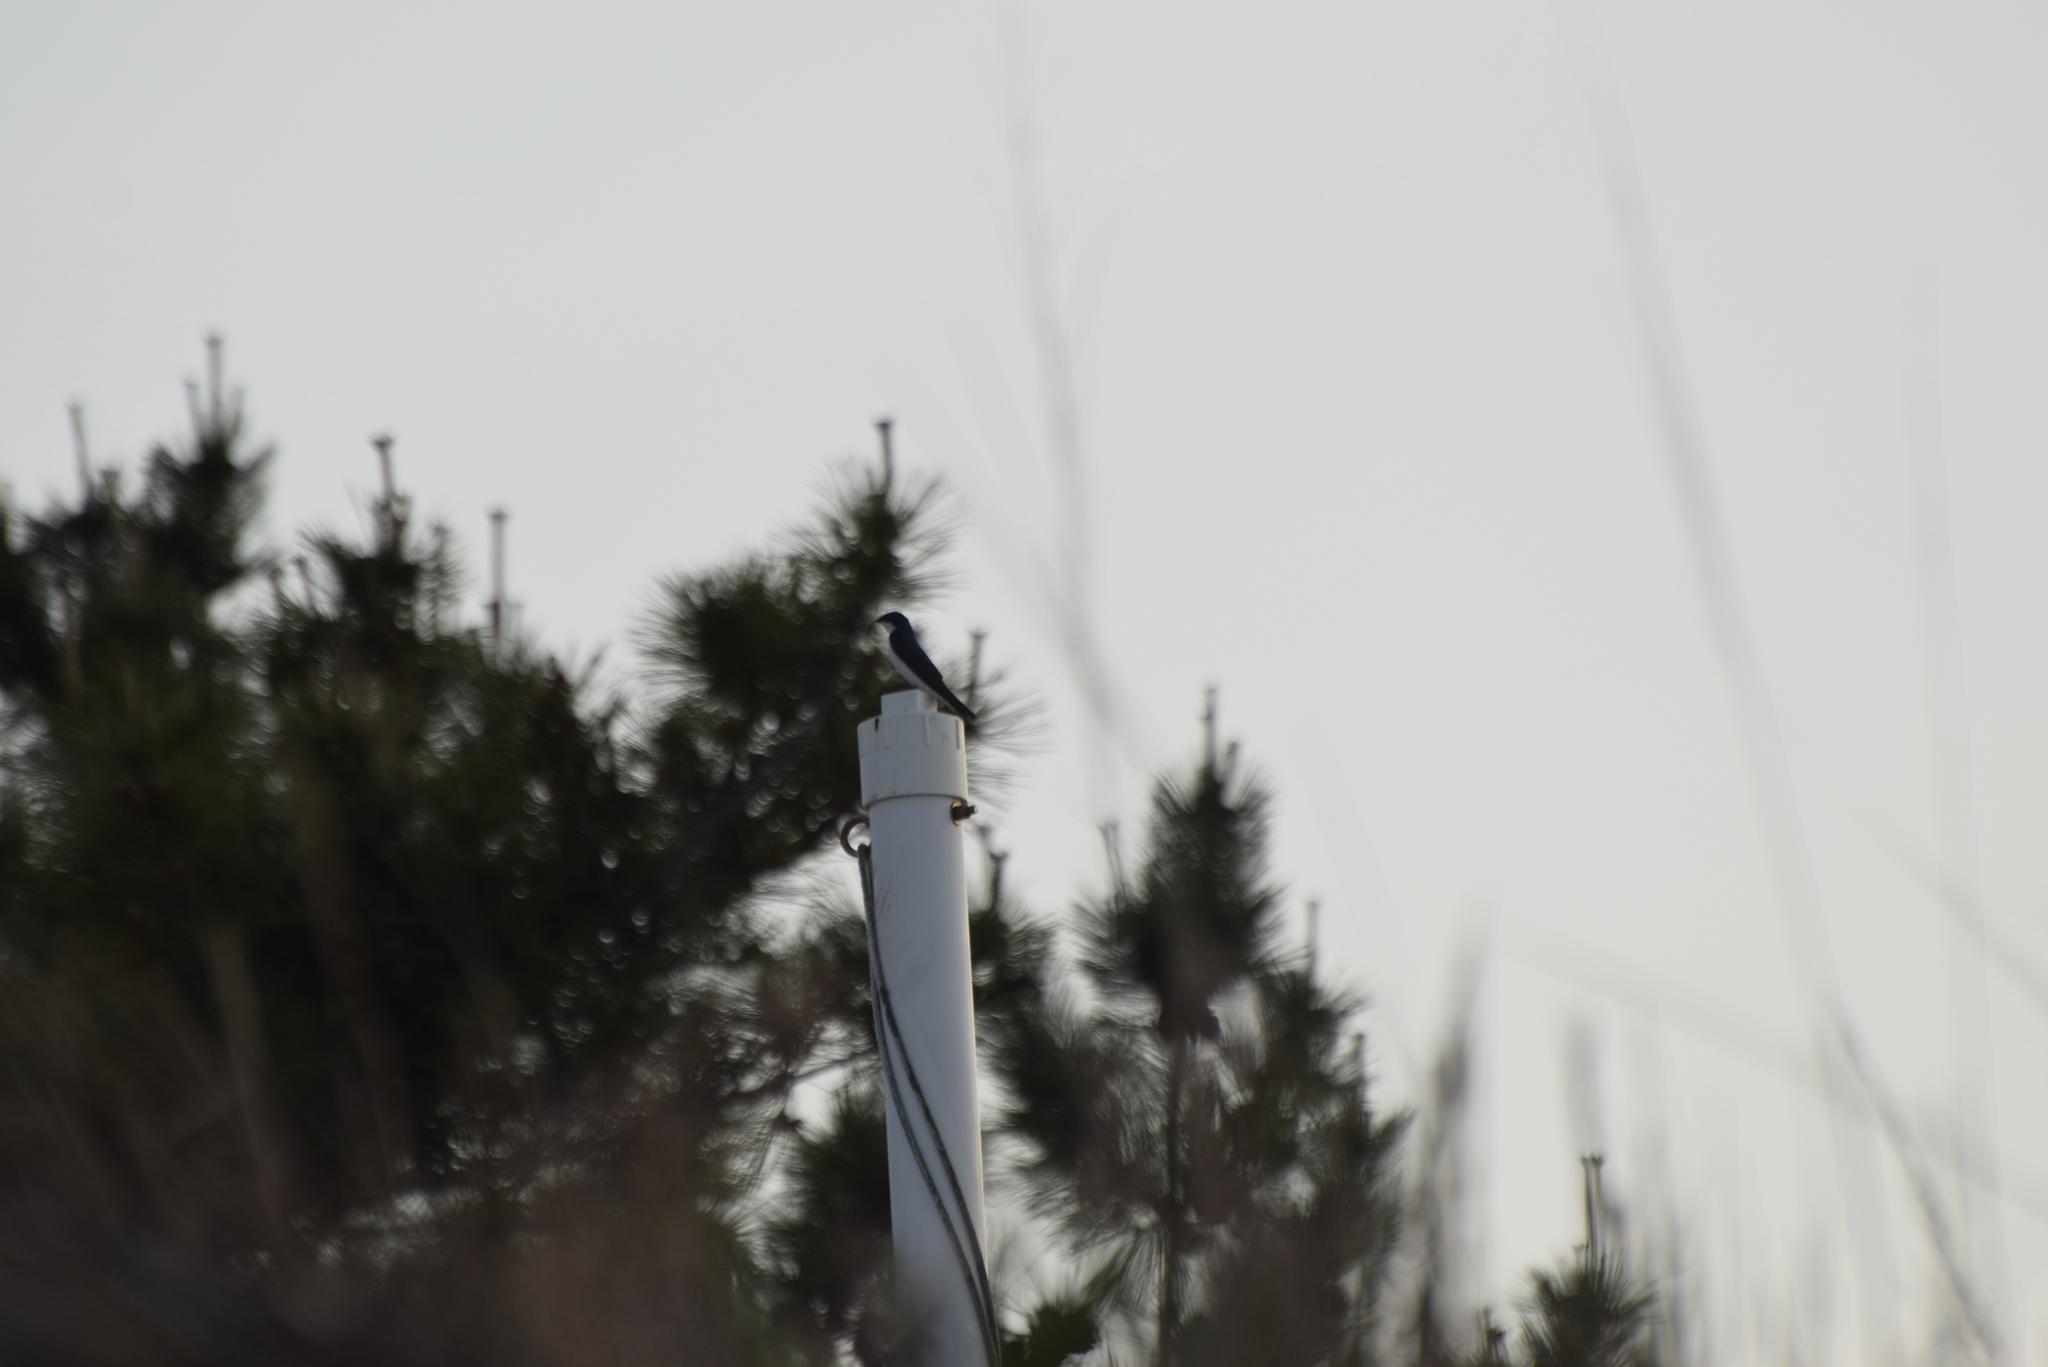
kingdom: Animalia
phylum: Chordata
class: Aves
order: Passeriformes
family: Hirundinidae
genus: Tachycineta
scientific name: Tachycineta bicolor
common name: Tree swallow
